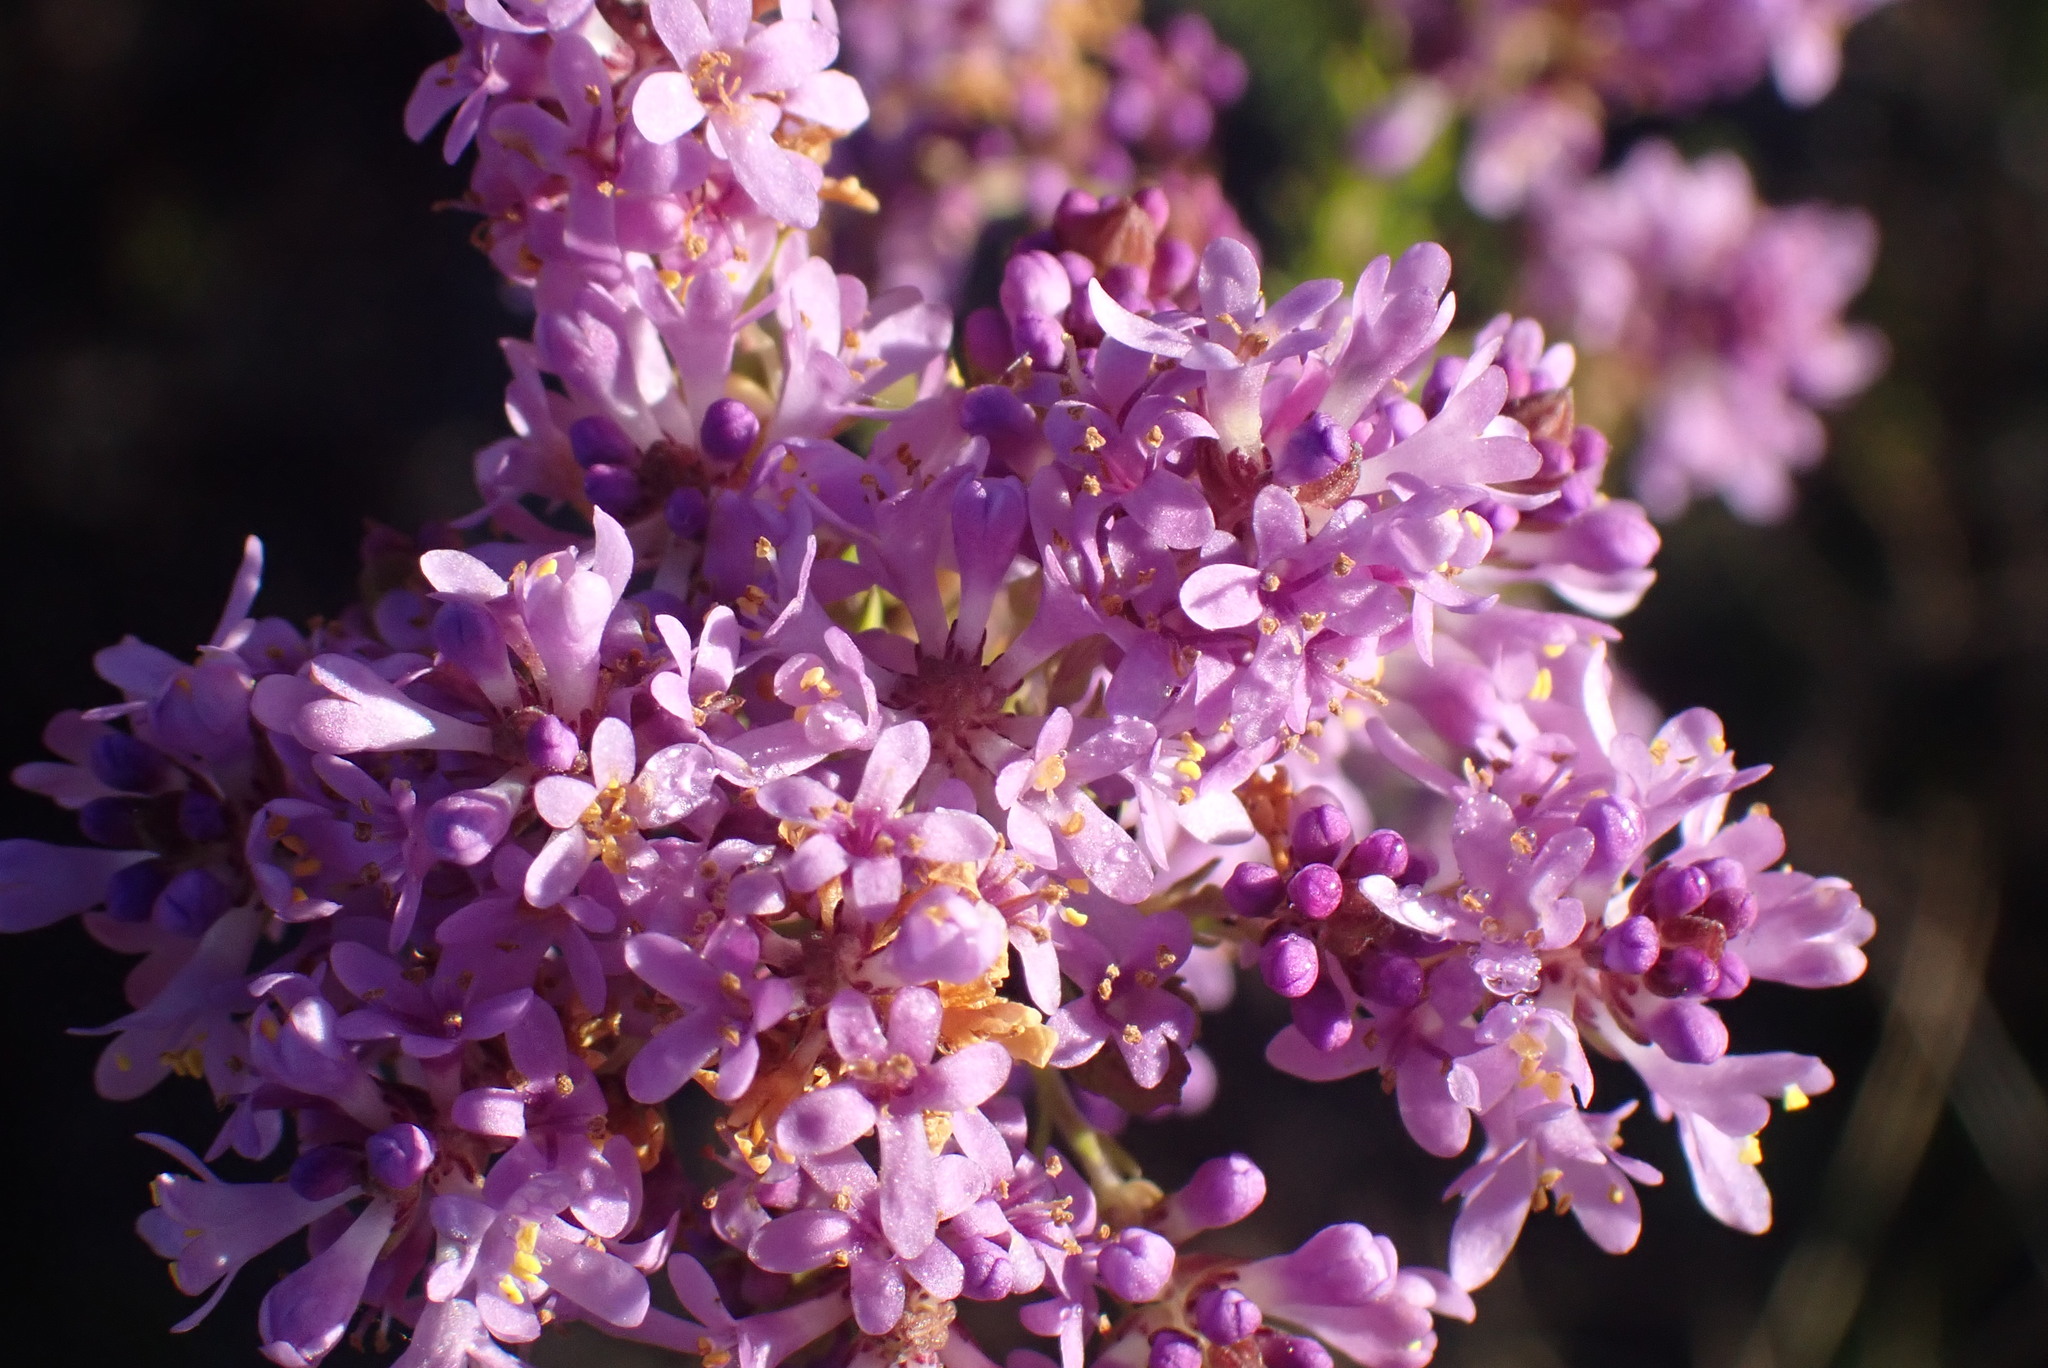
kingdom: Plantae
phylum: Tracheophyta
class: Magnoliopsida
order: Lamiales
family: Scrophulariaceae
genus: Selago
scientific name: Selago canescens
